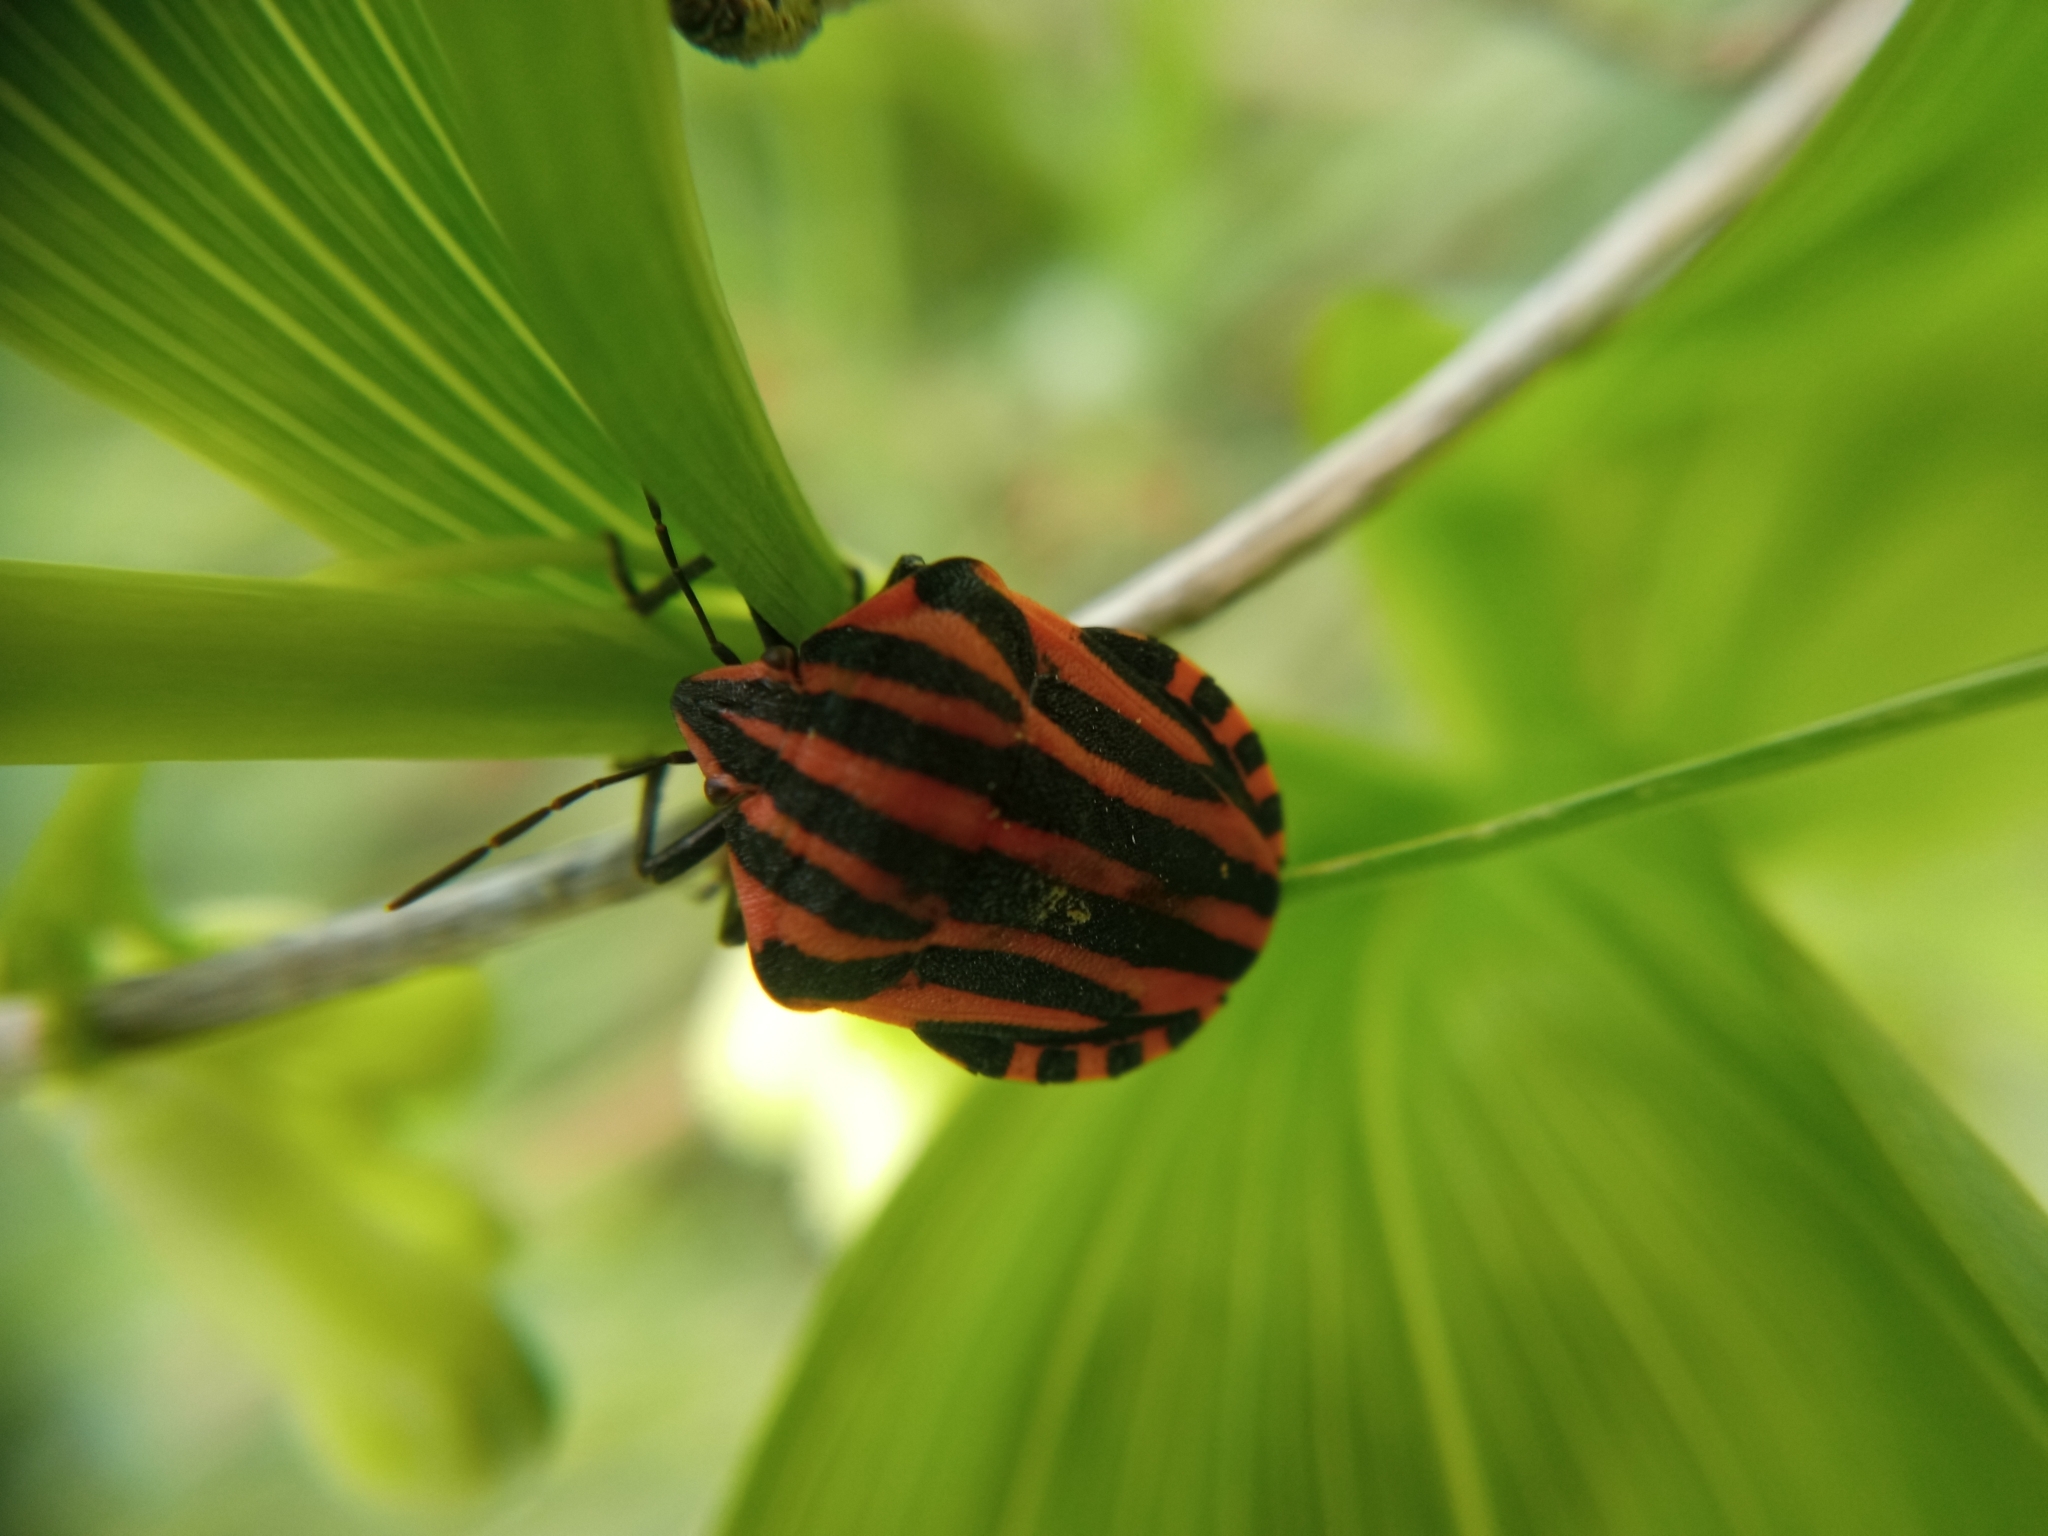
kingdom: Animalia
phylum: Arthropoda
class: Insecta
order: Hemiptera
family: Pentatomidae
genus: Graphosoma
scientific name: Graphosoma italicum
